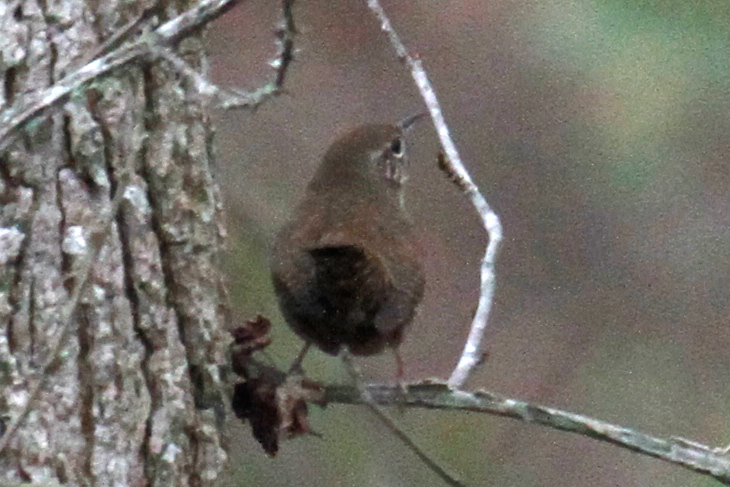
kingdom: Animalia
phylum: Chordata
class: Aves
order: Passeriformes
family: Troglodytidae
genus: Troglodytes
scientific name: Troglodytes aedon
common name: House wren
